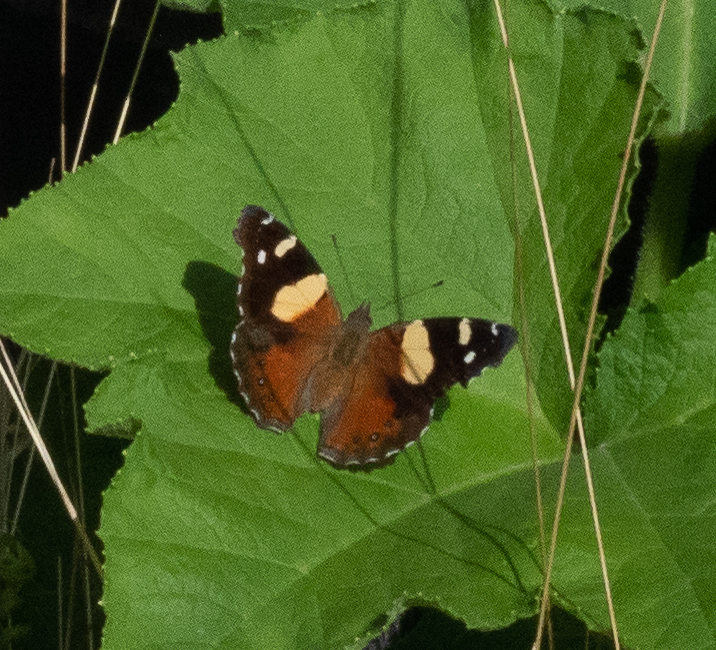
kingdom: Animalia
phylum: Arthropoda
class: Insecta
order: Lepidoptera
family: Nymphalidae
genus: Vanessa
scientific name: Vanessa itea
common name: Yellow admiral
